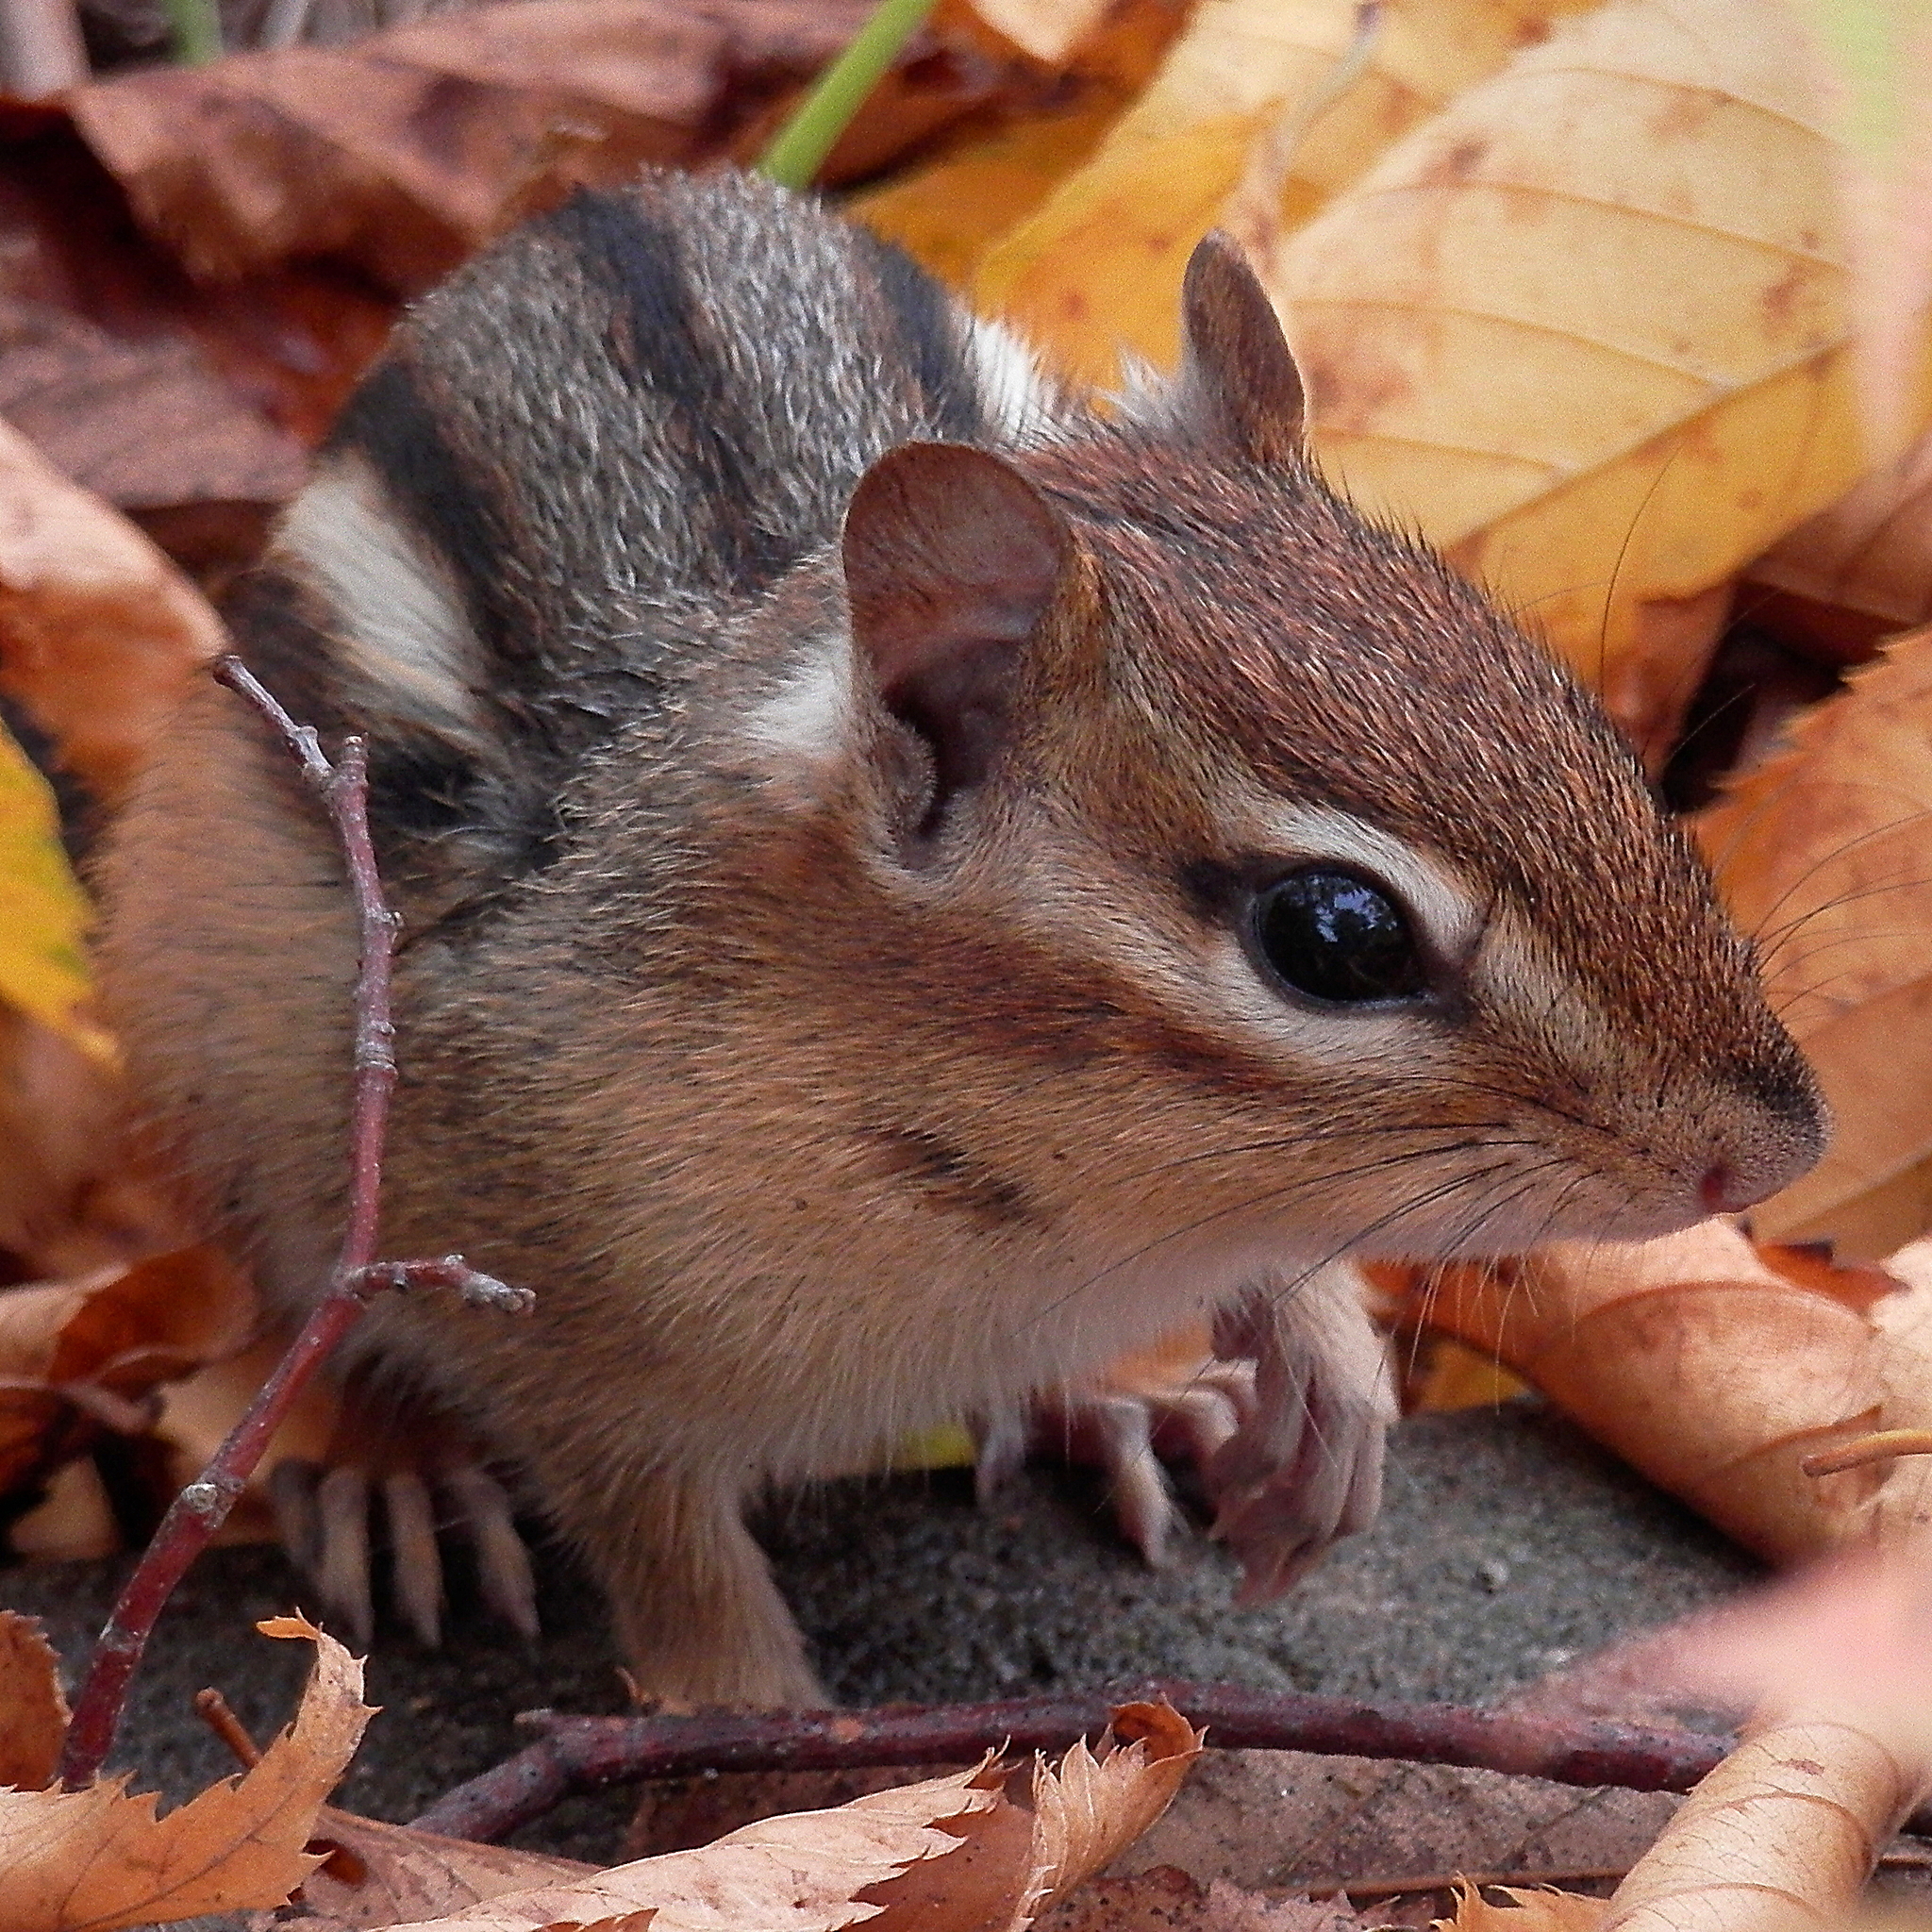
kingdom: Animalia
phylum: Chordata
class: Mammalia
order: Rodentia
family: Sciuridae
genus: Tamias
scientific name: Tamias striatus
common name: Eastern chipmunk
